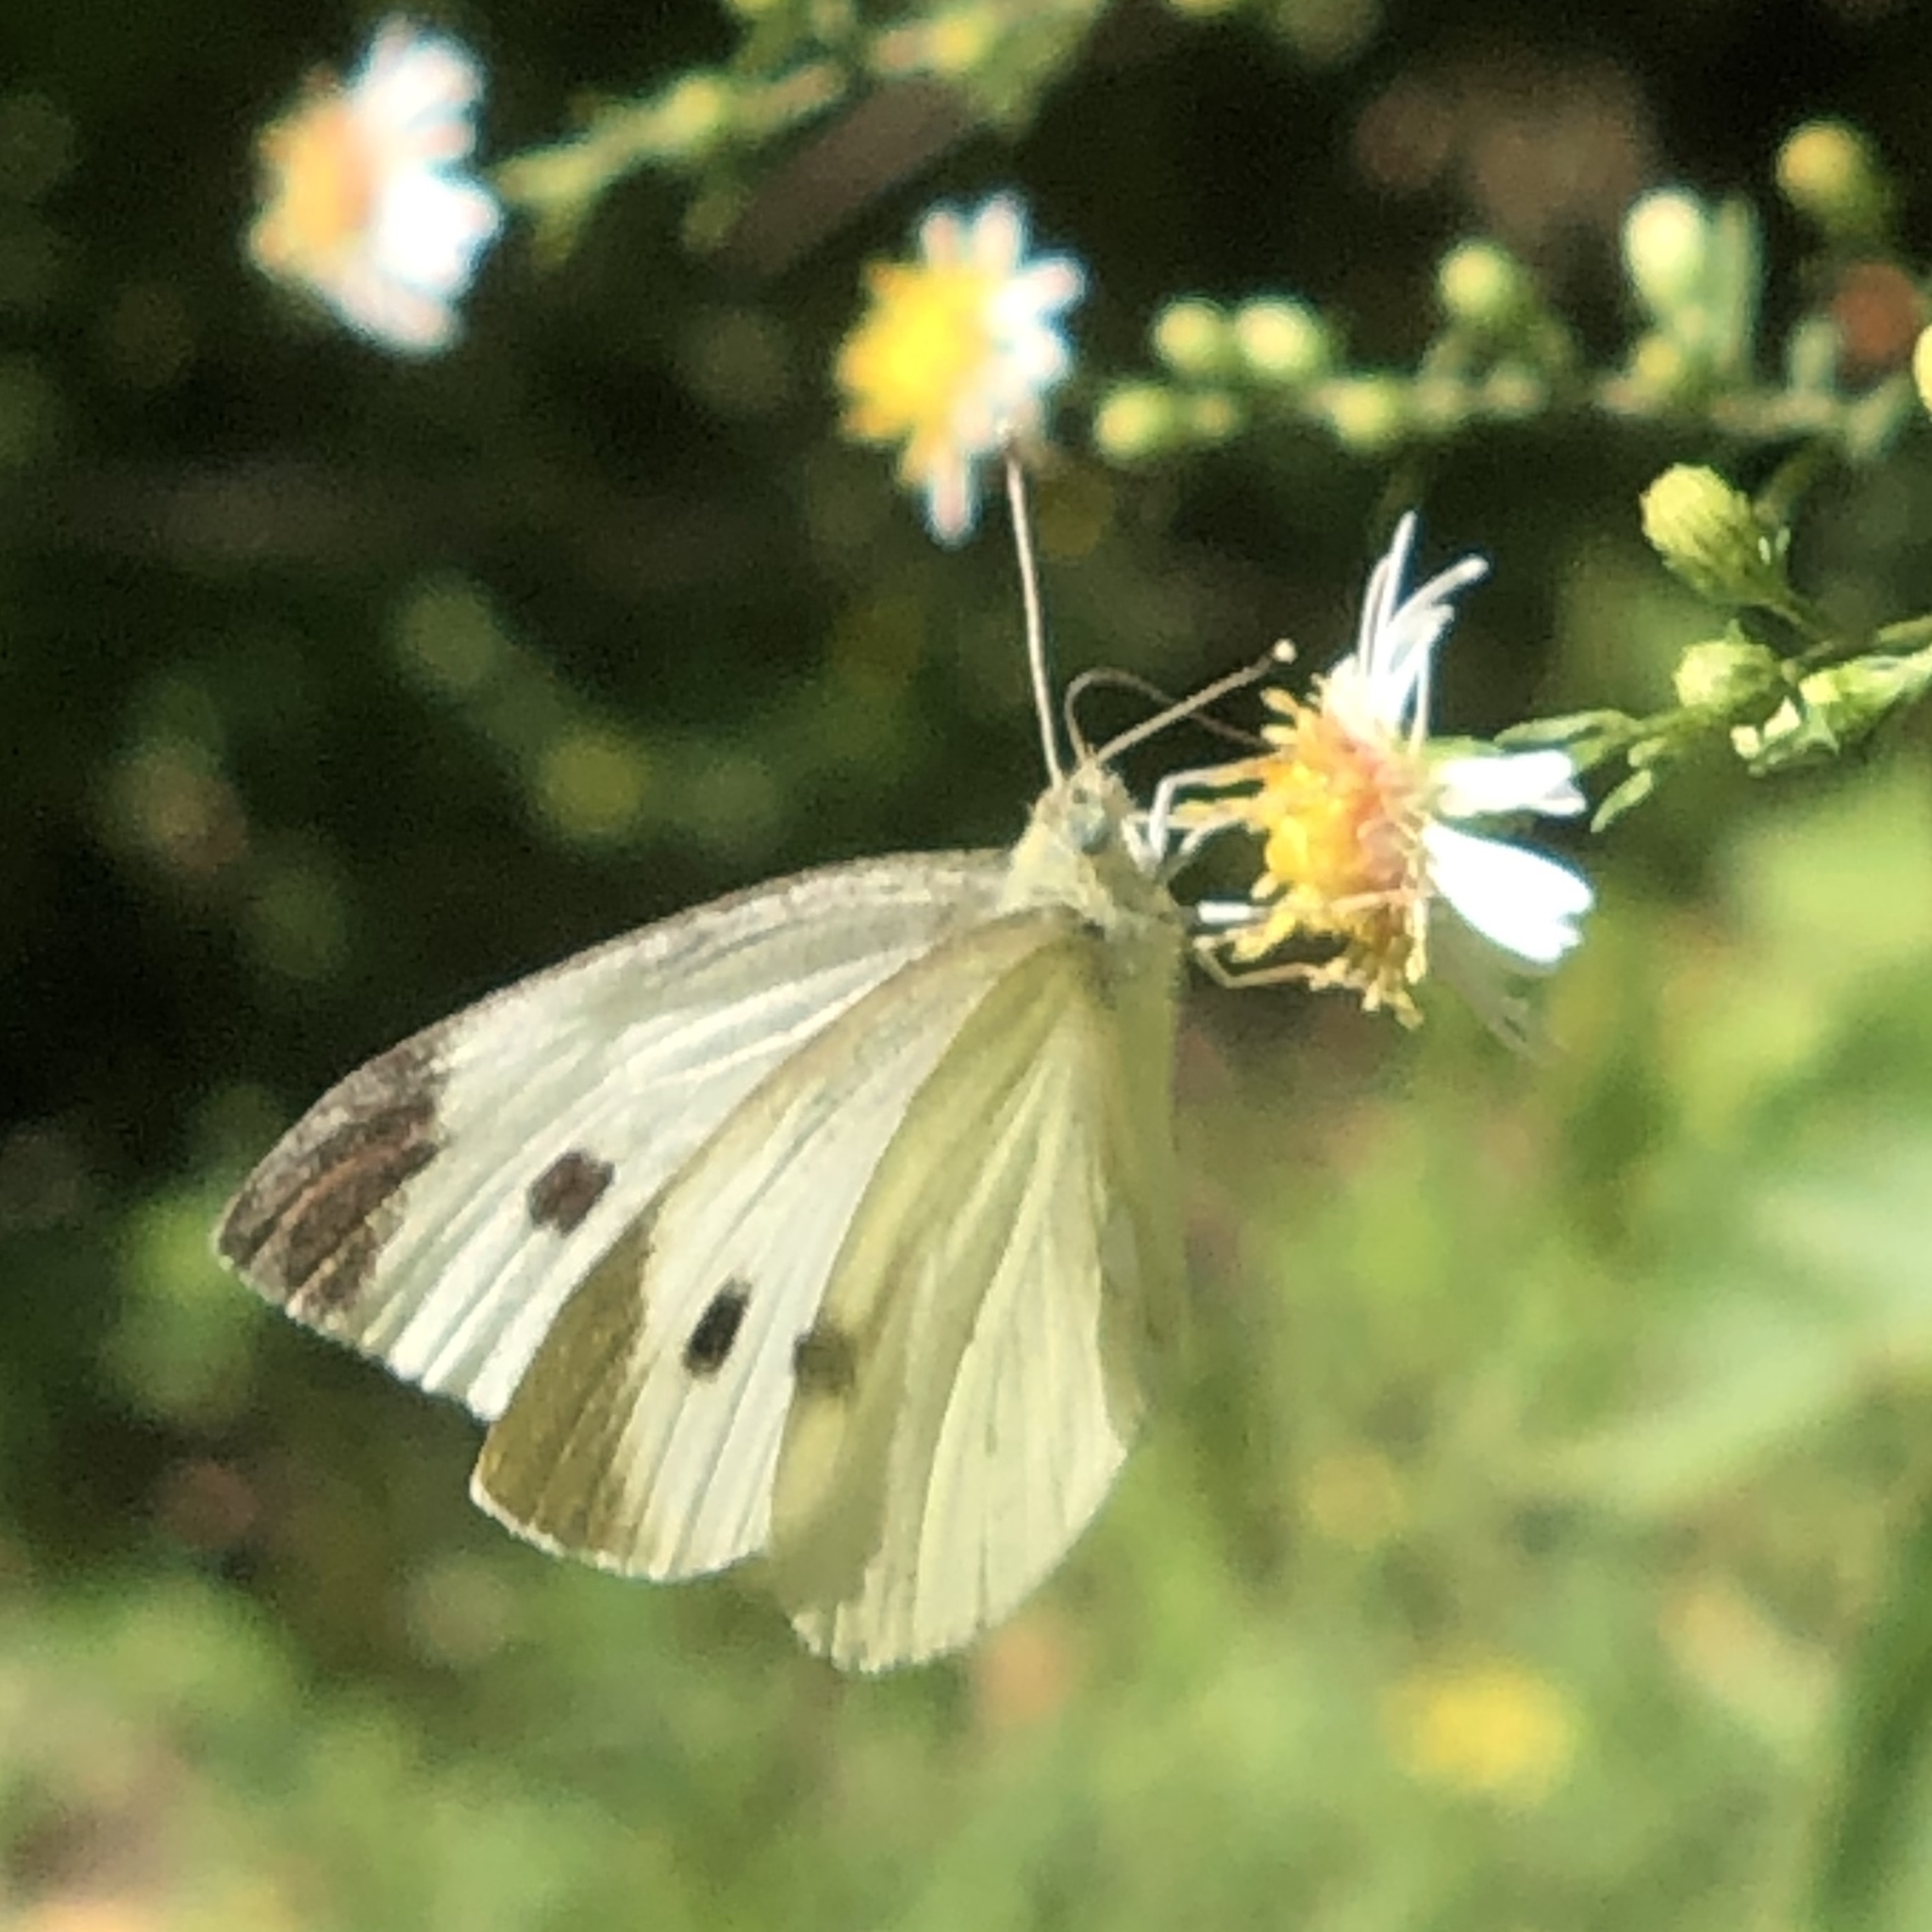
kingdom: Animalia
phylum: Arthropoda
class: Insecta
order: Lepidoptera
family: Pieridae
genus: Pieris
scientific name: Pieris rapae
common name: Small white
